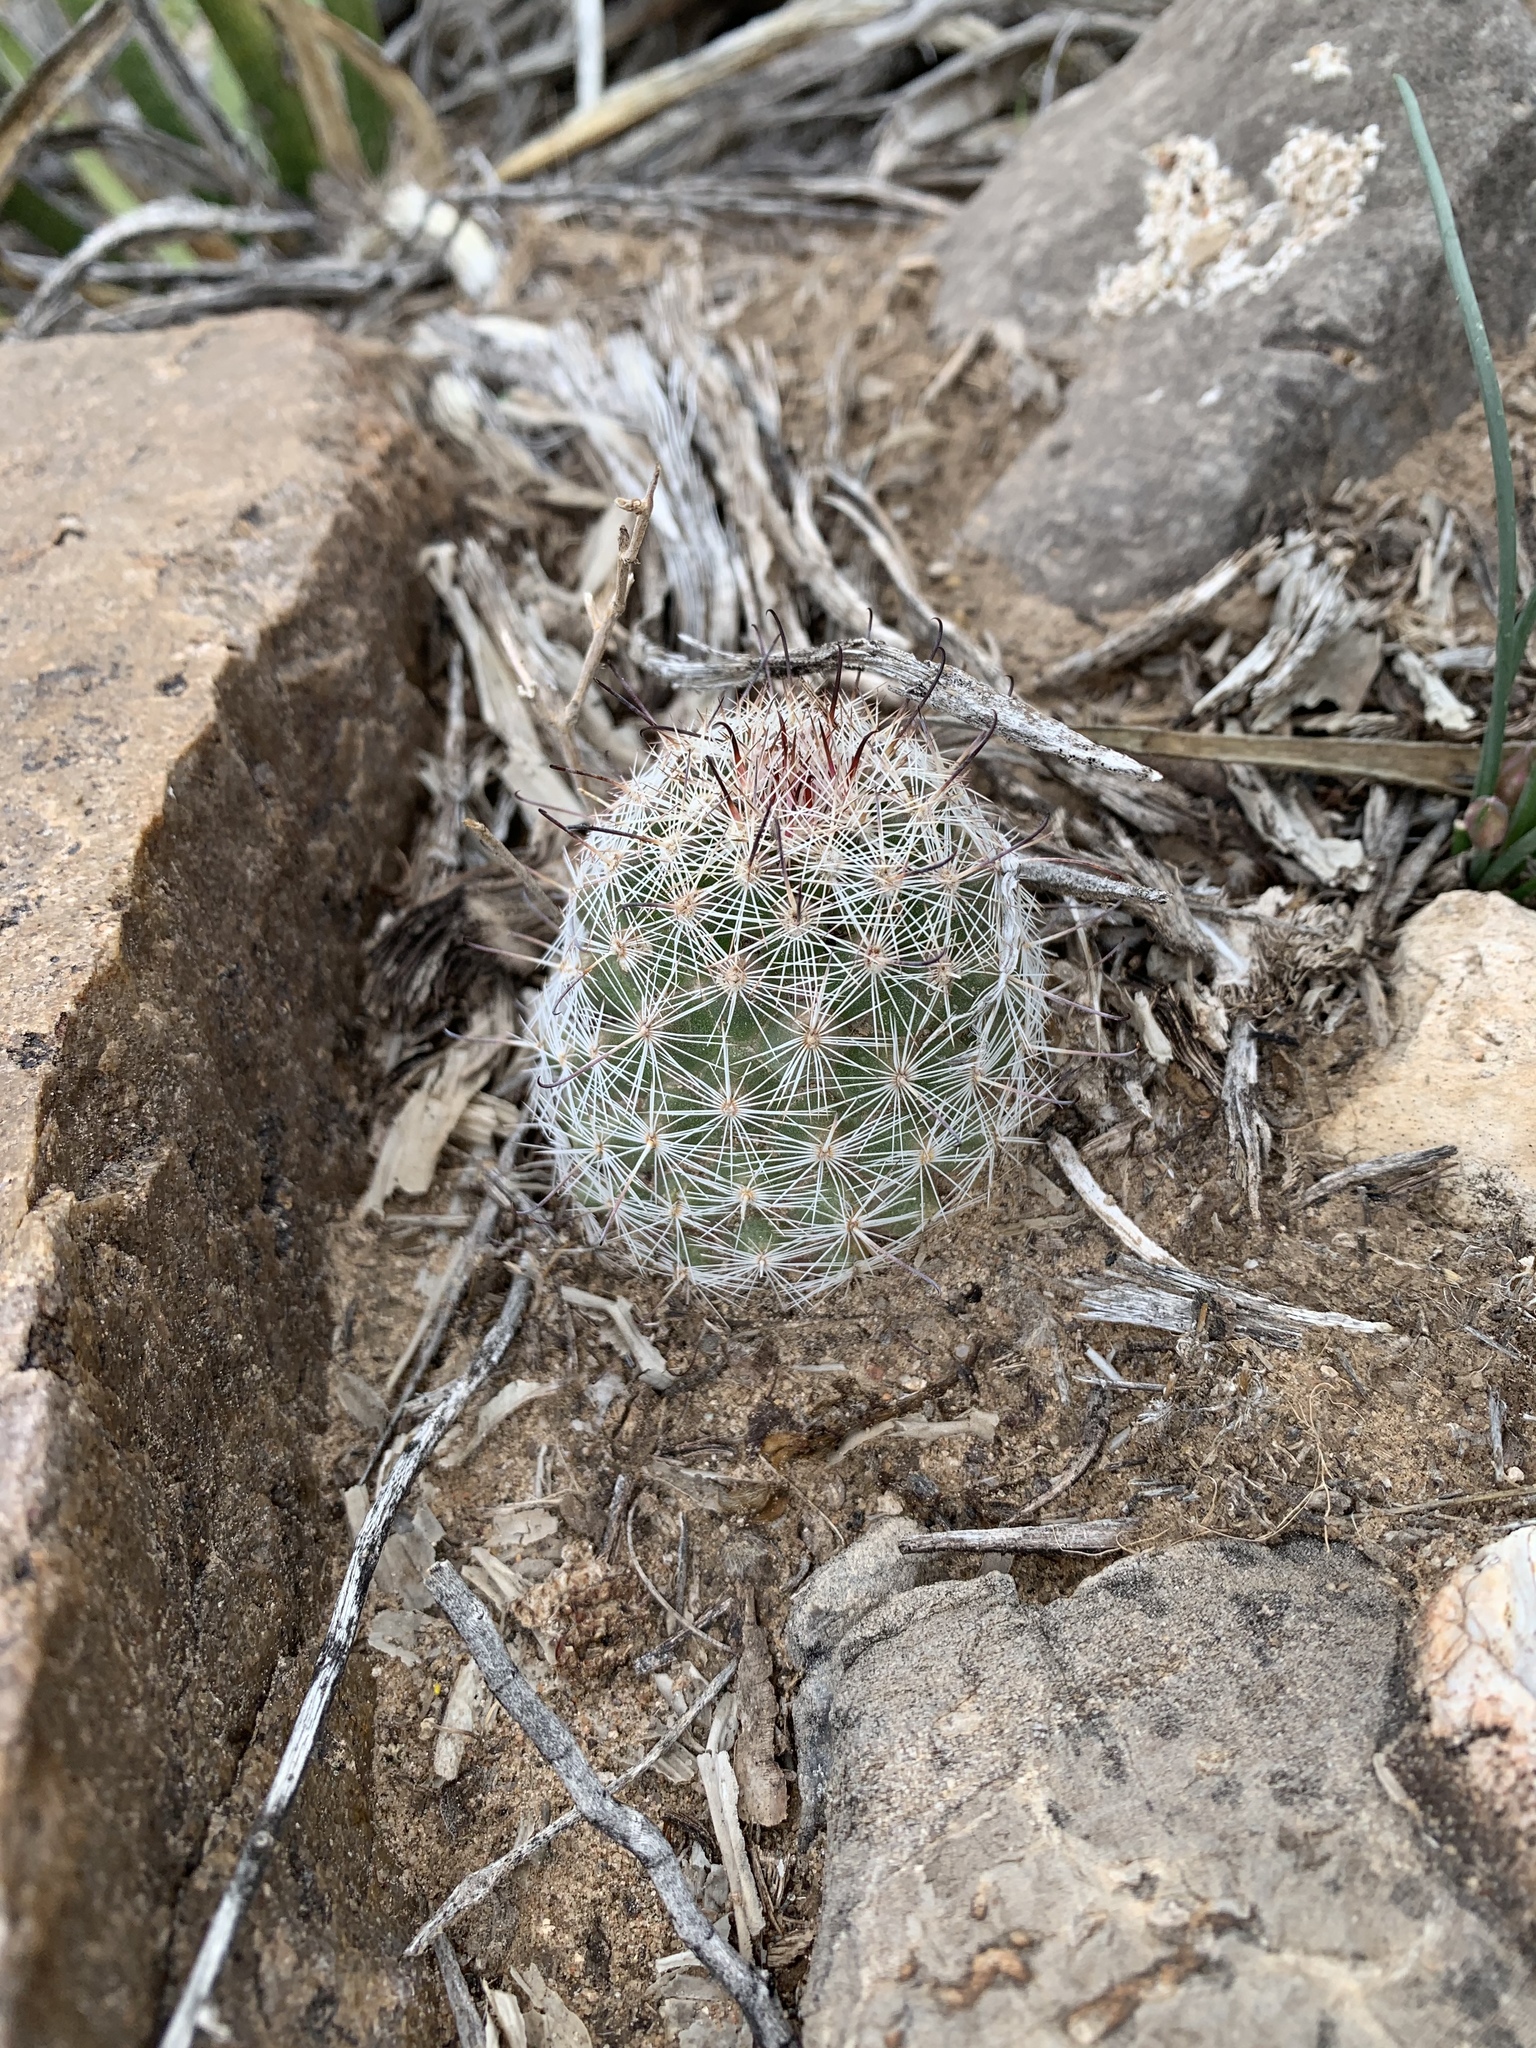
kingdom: Plantae
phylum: Tracheophyta
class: Magnoliopsida
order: Caryophyllales
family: Cactaceae
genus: Cochemiea
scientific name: Cochemiea grahamii
